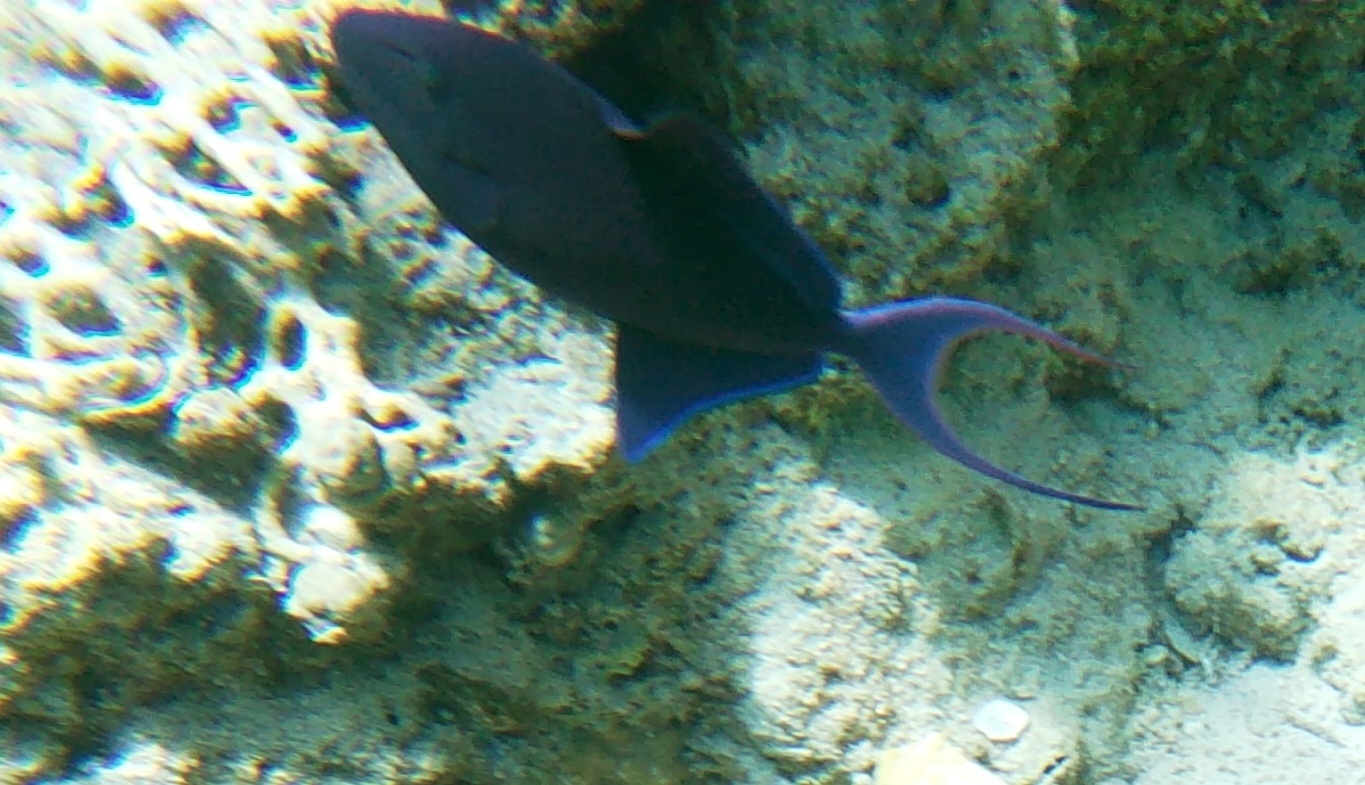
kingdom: Animalia
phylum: Chordata
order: Tetraodontiformes
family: Balistidae
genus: Odonus
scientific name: Odonus niger
